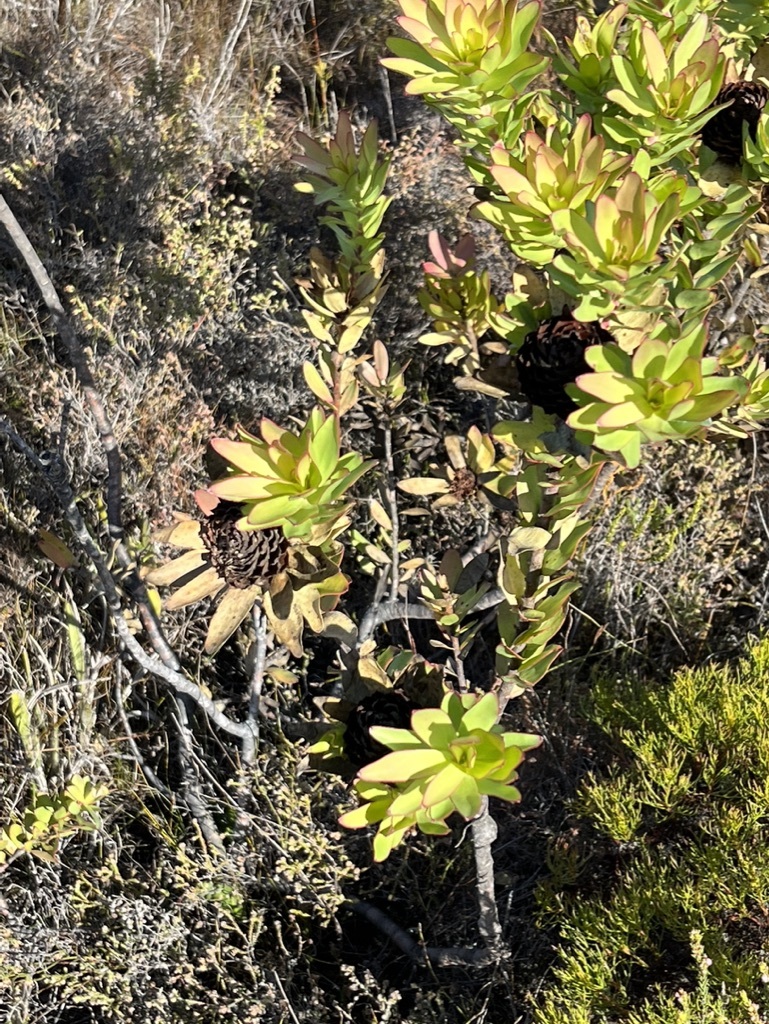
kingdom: Plantae
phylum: Tracheophyta
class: Magnoliopsida
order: Proteales
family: Proteaceae
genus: Leucadendron
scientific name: Leucadendron elimense
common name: Elim conebush
